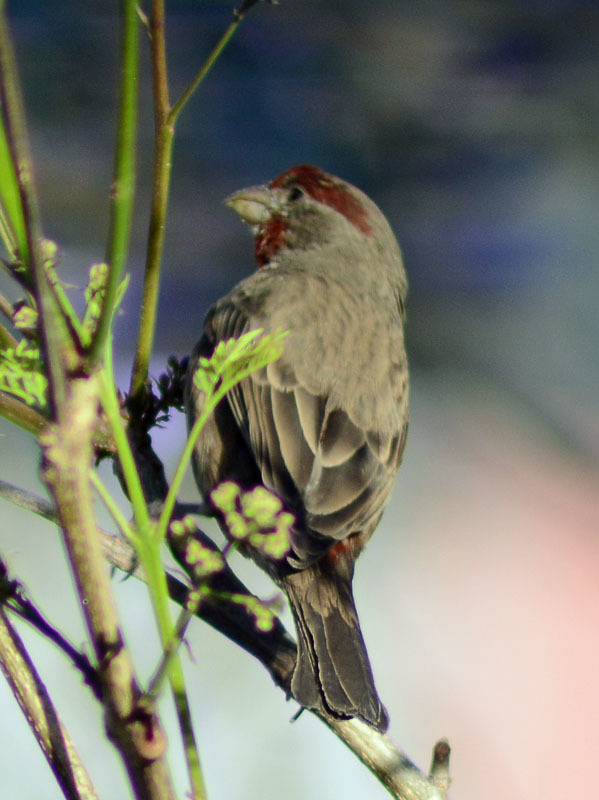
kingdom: Animalia
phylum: Chordata
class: Aves
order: Passeriformes
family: Fringillidae
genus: Haemorhous
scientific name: Haemorhous mexicanus
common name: House finch
